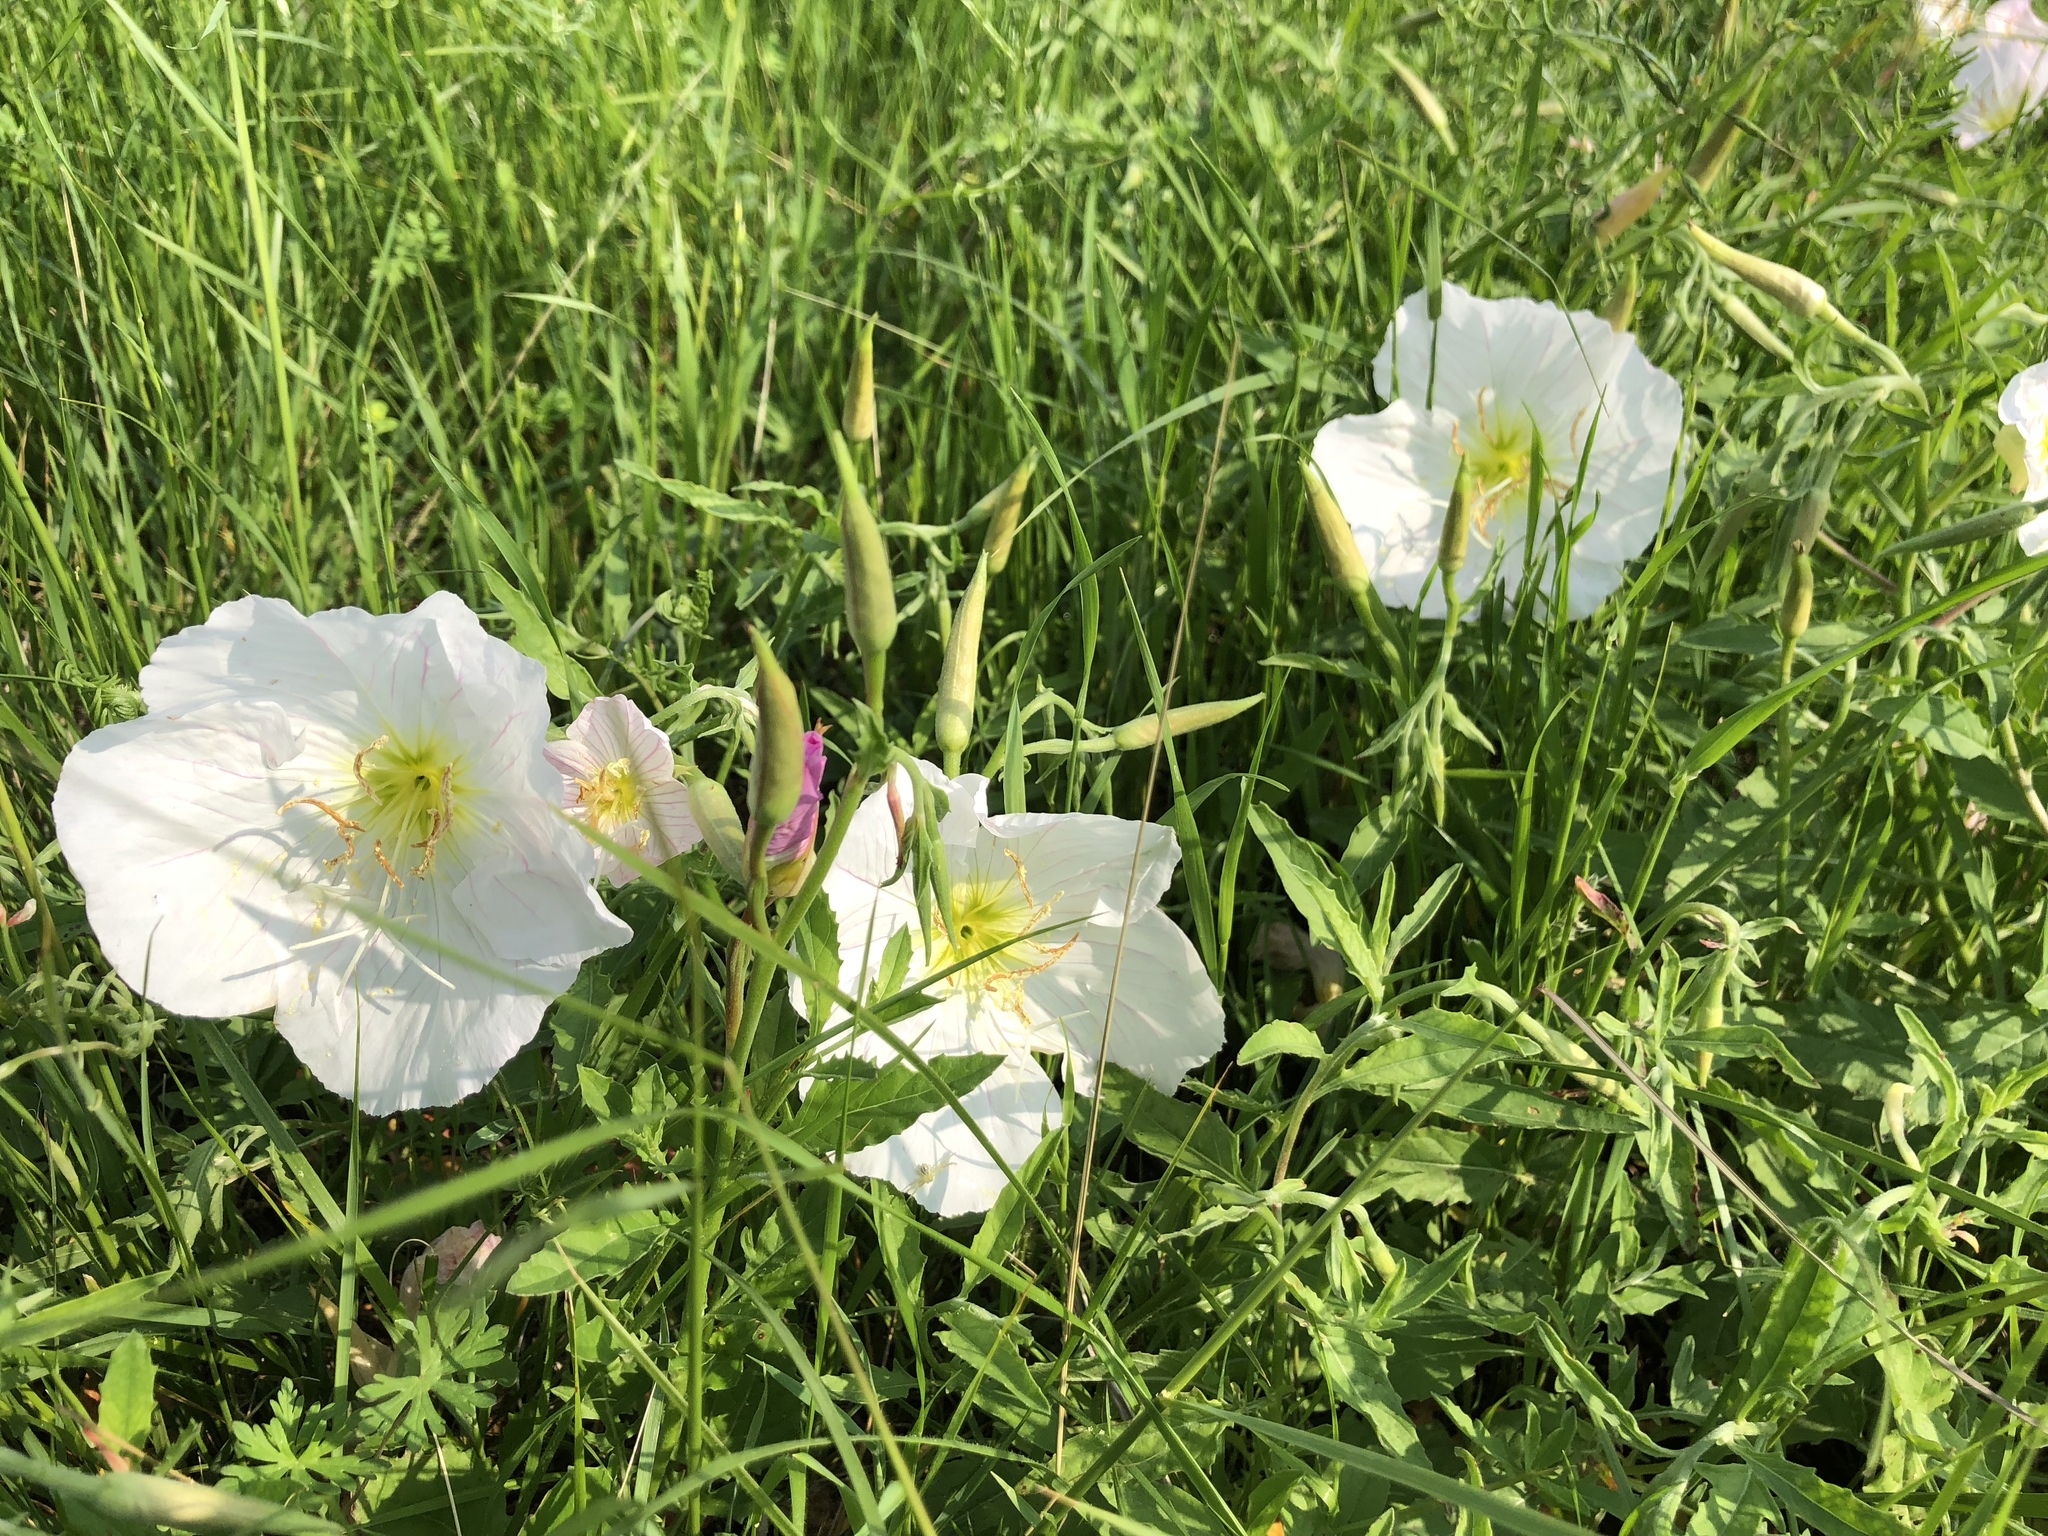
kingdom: Plantae
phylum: Tracheophyta
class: Magnoliopsida
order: Myrtales
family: Onagraceae
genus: Oenothera
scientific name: Oenothera speciosa
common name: White evening-primrose
